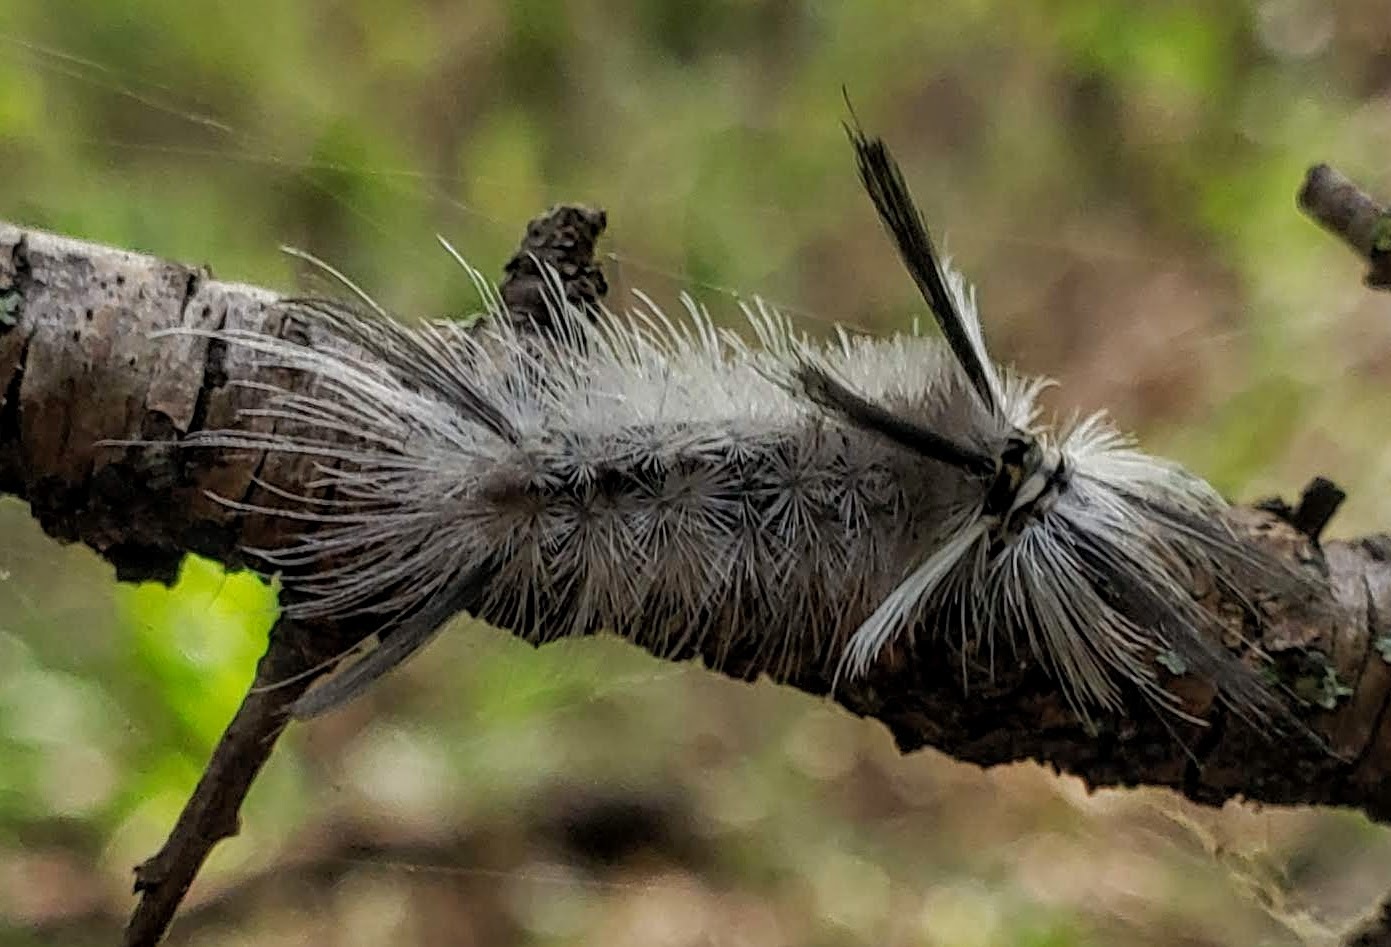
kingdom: Animalia
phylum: Arthropoda
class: Insecta
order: Lepidoptera
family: Erebidae
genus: Halysidota
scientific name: Halysidota tessellaris
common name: Banded tussock moth
